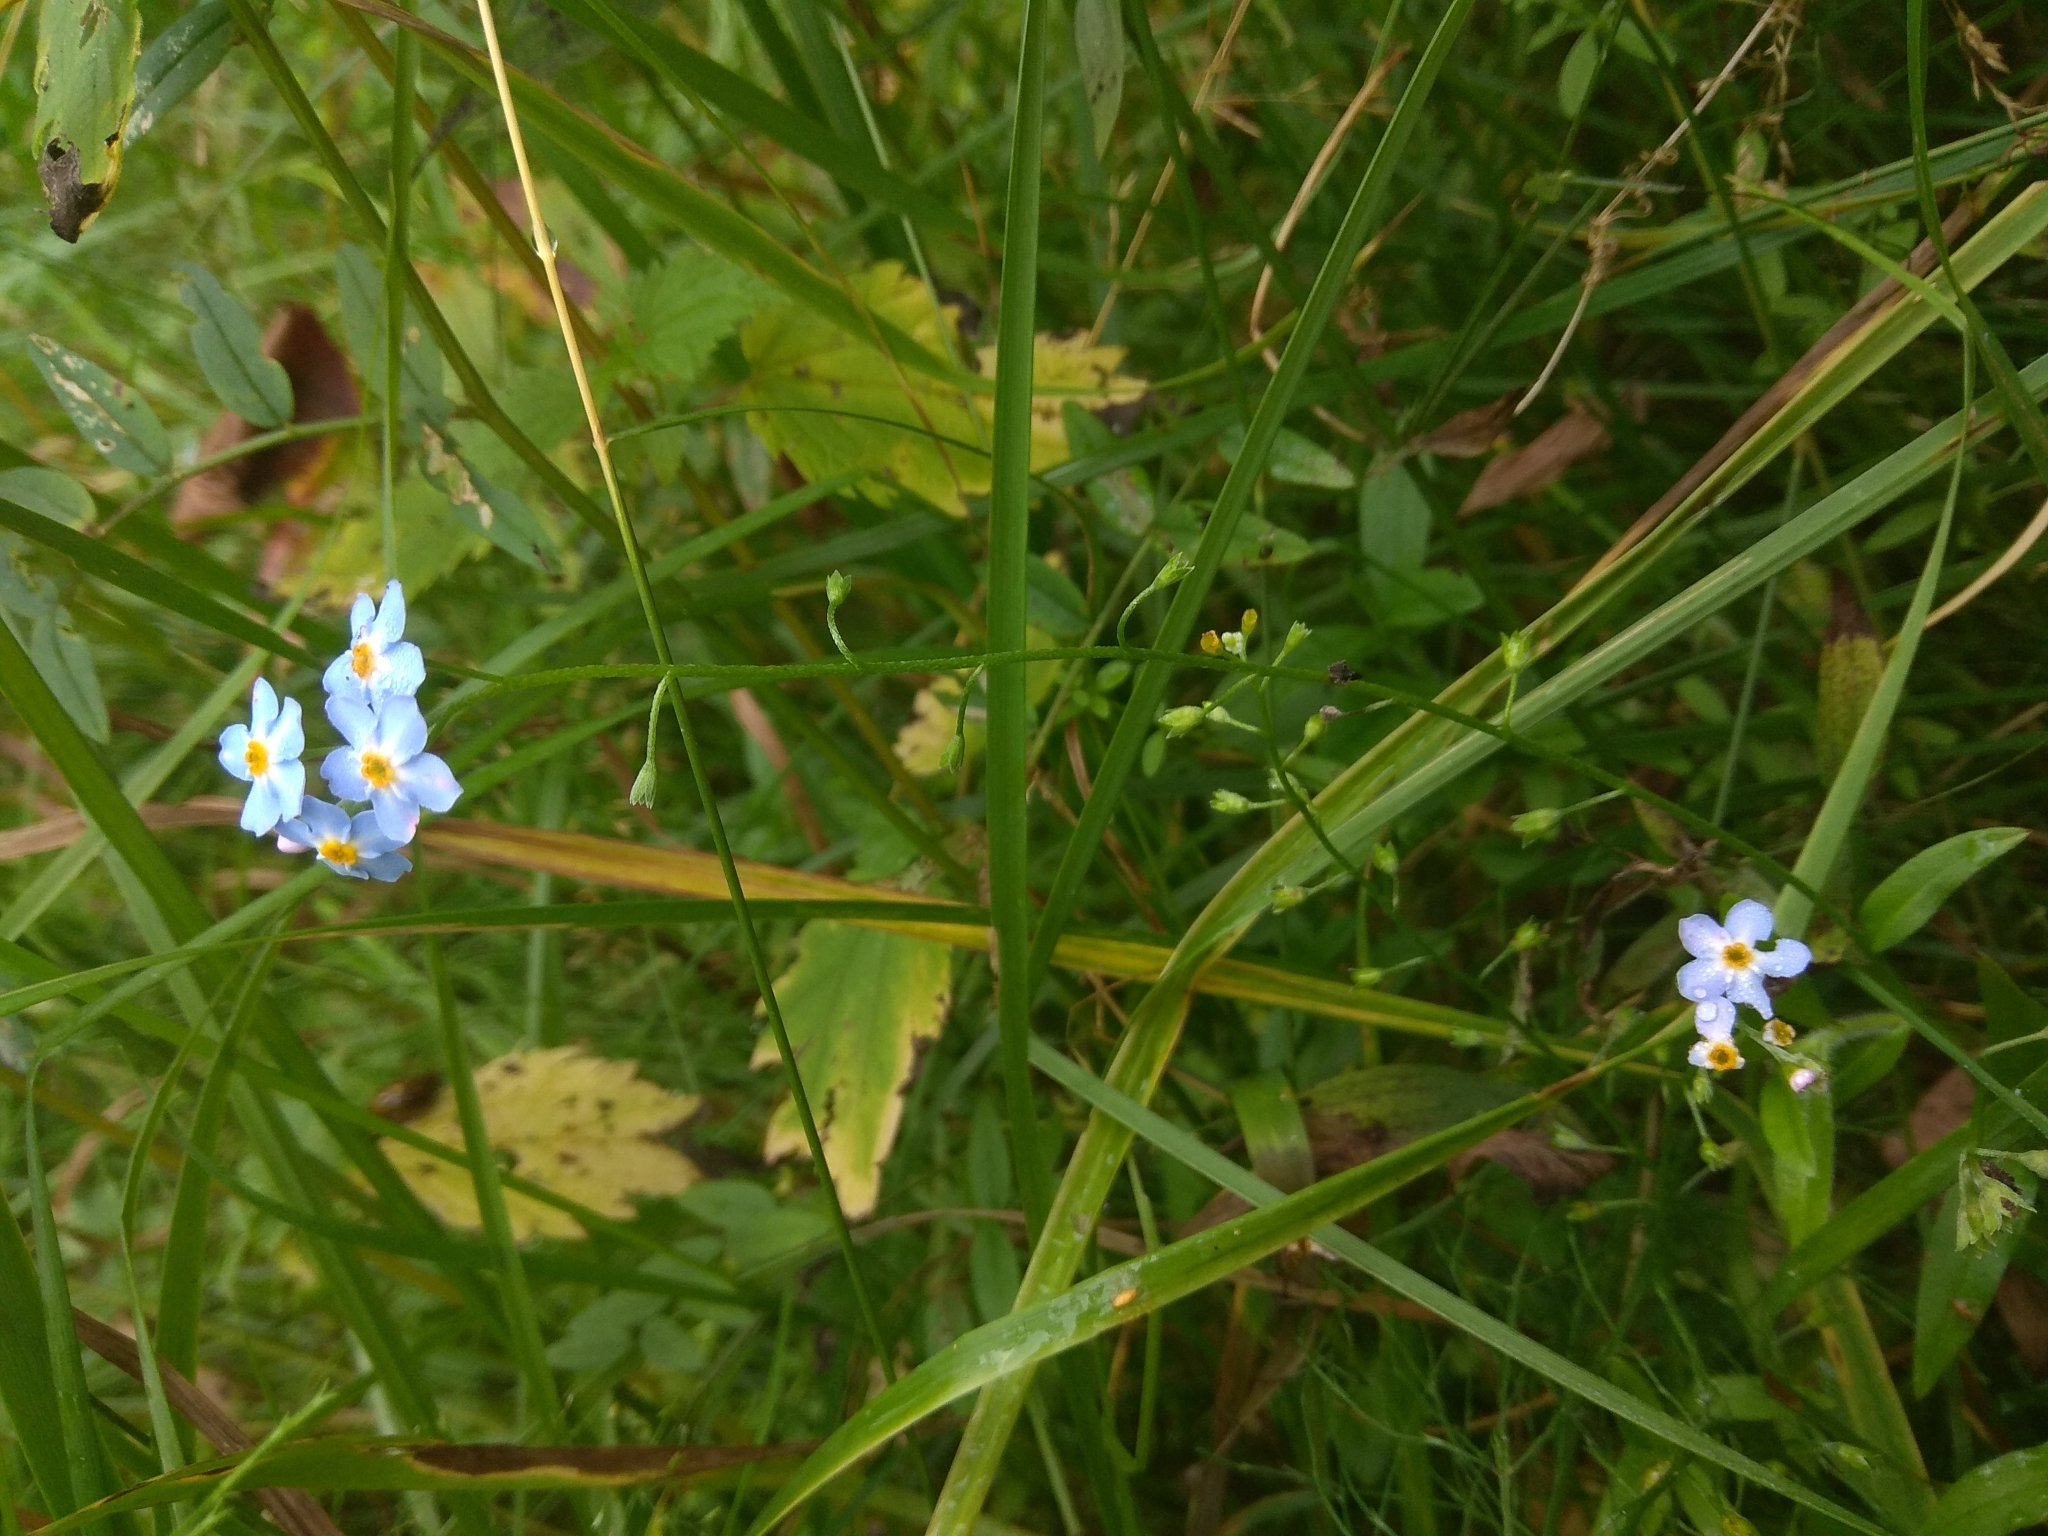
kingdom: Plantae
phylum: Tracheophyta
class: Magnoliopsida
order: Boraginales
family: Boraginaceae
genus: Myosotis
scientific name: Myosotis scorpioides
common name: Water forget-me-not
